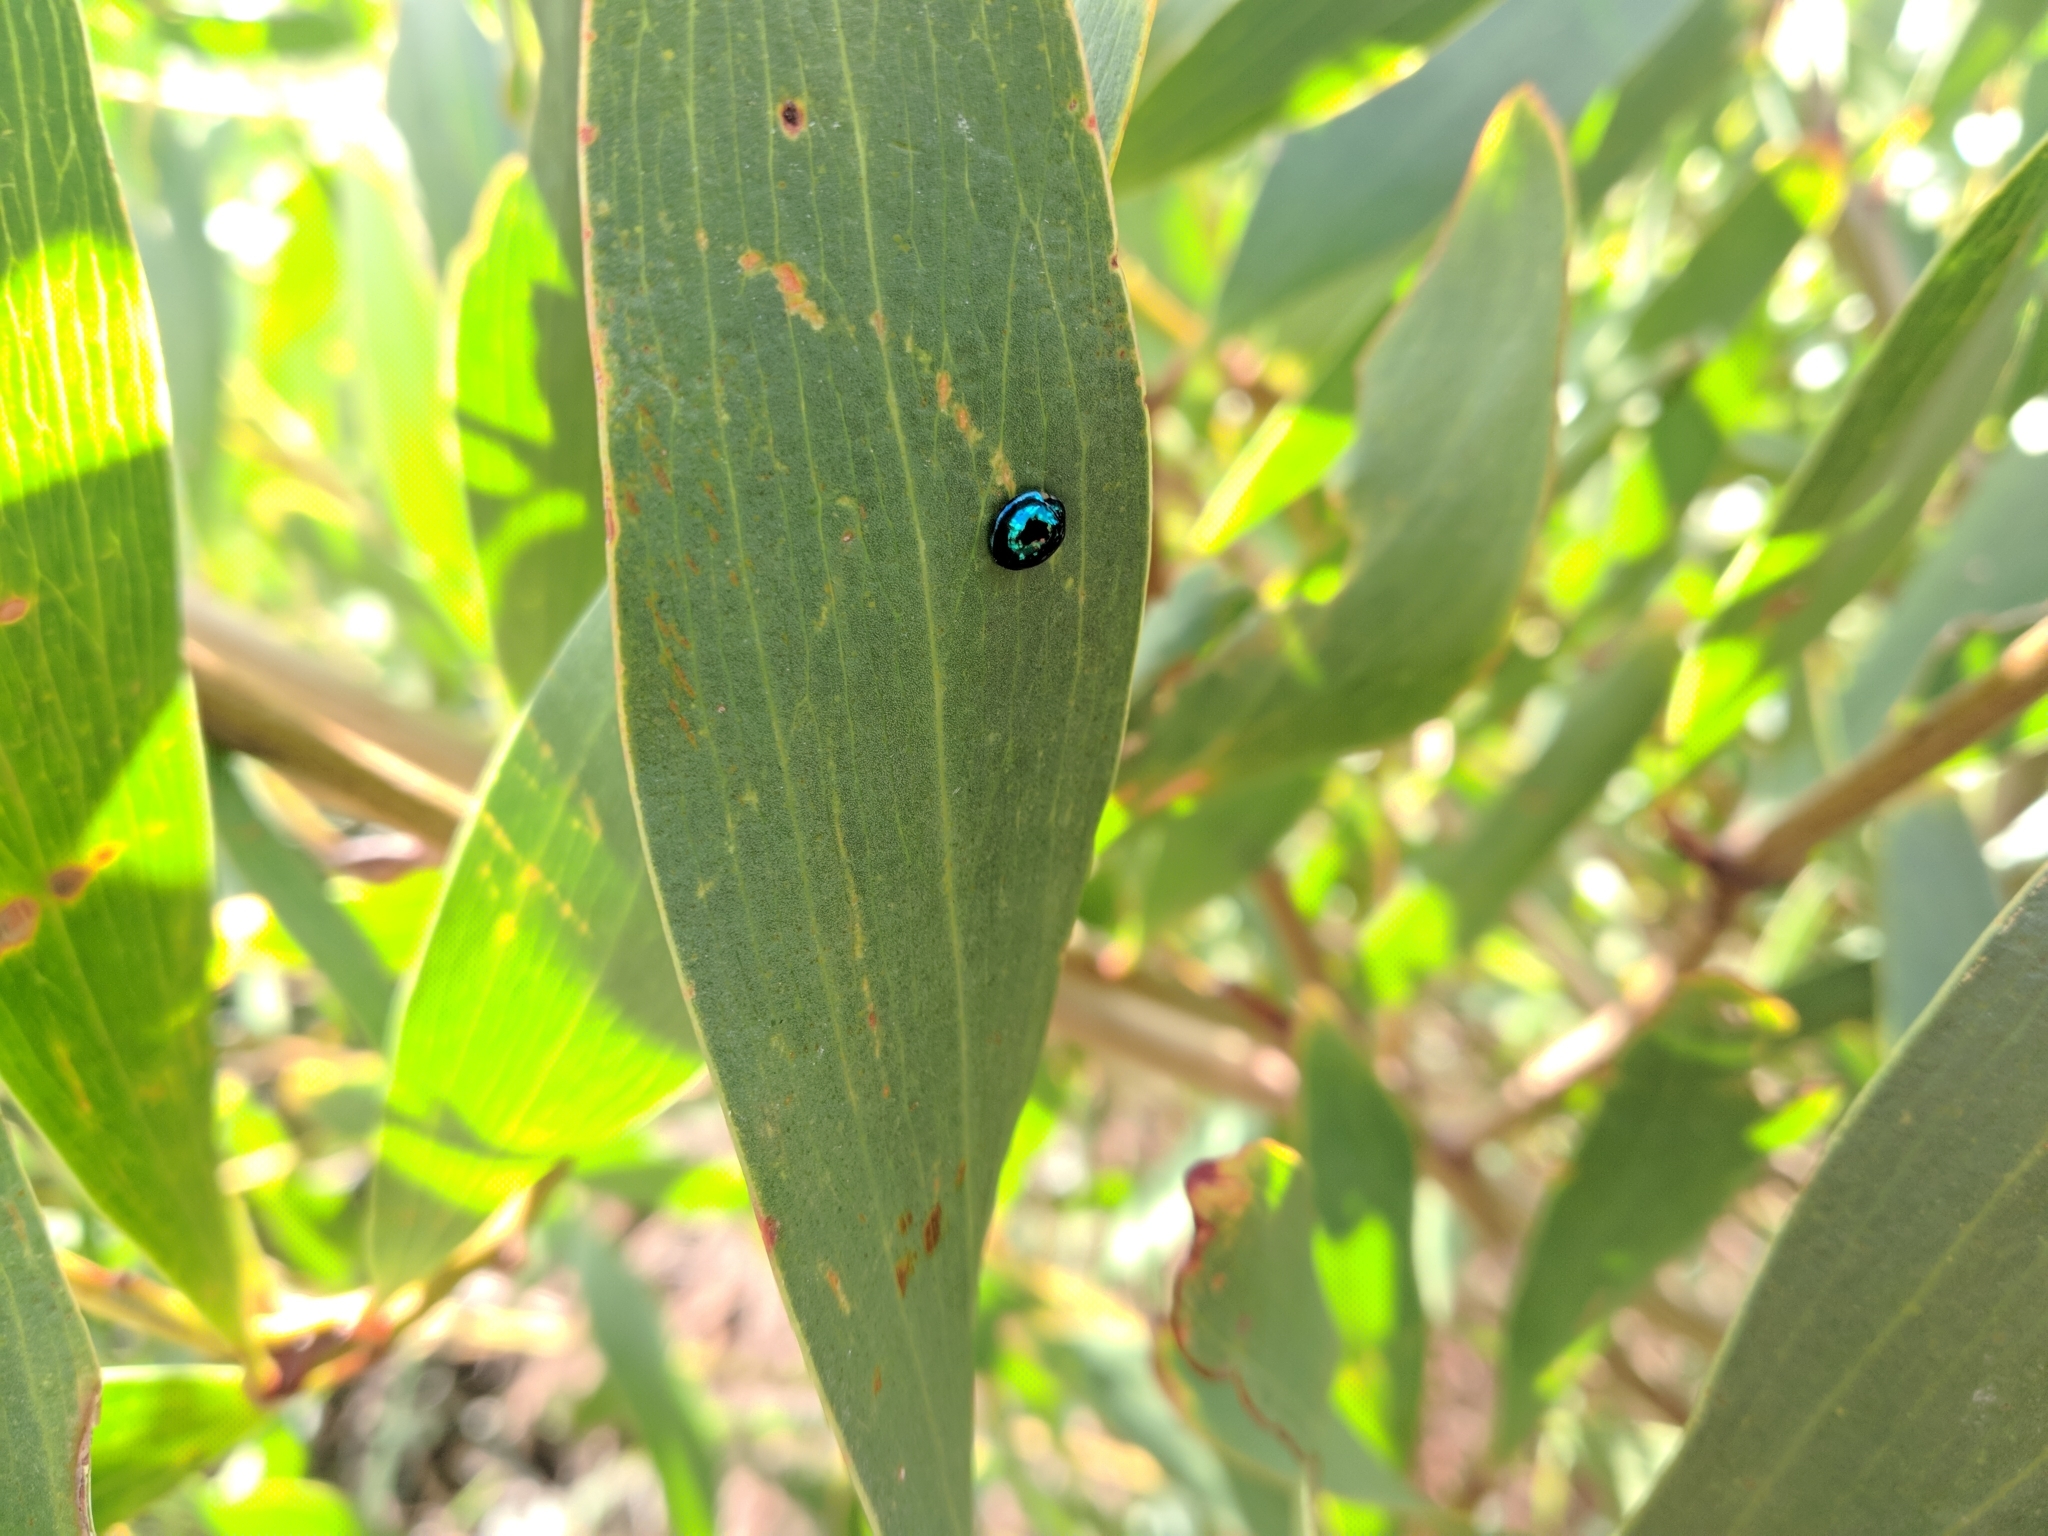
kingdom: Animalia
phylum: Arthropoda
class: Insecta
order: Coleoptera
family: Coccinellidae
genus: Halmus
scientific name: Halmus chalybeus
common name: Steel blue ladybird beetle
